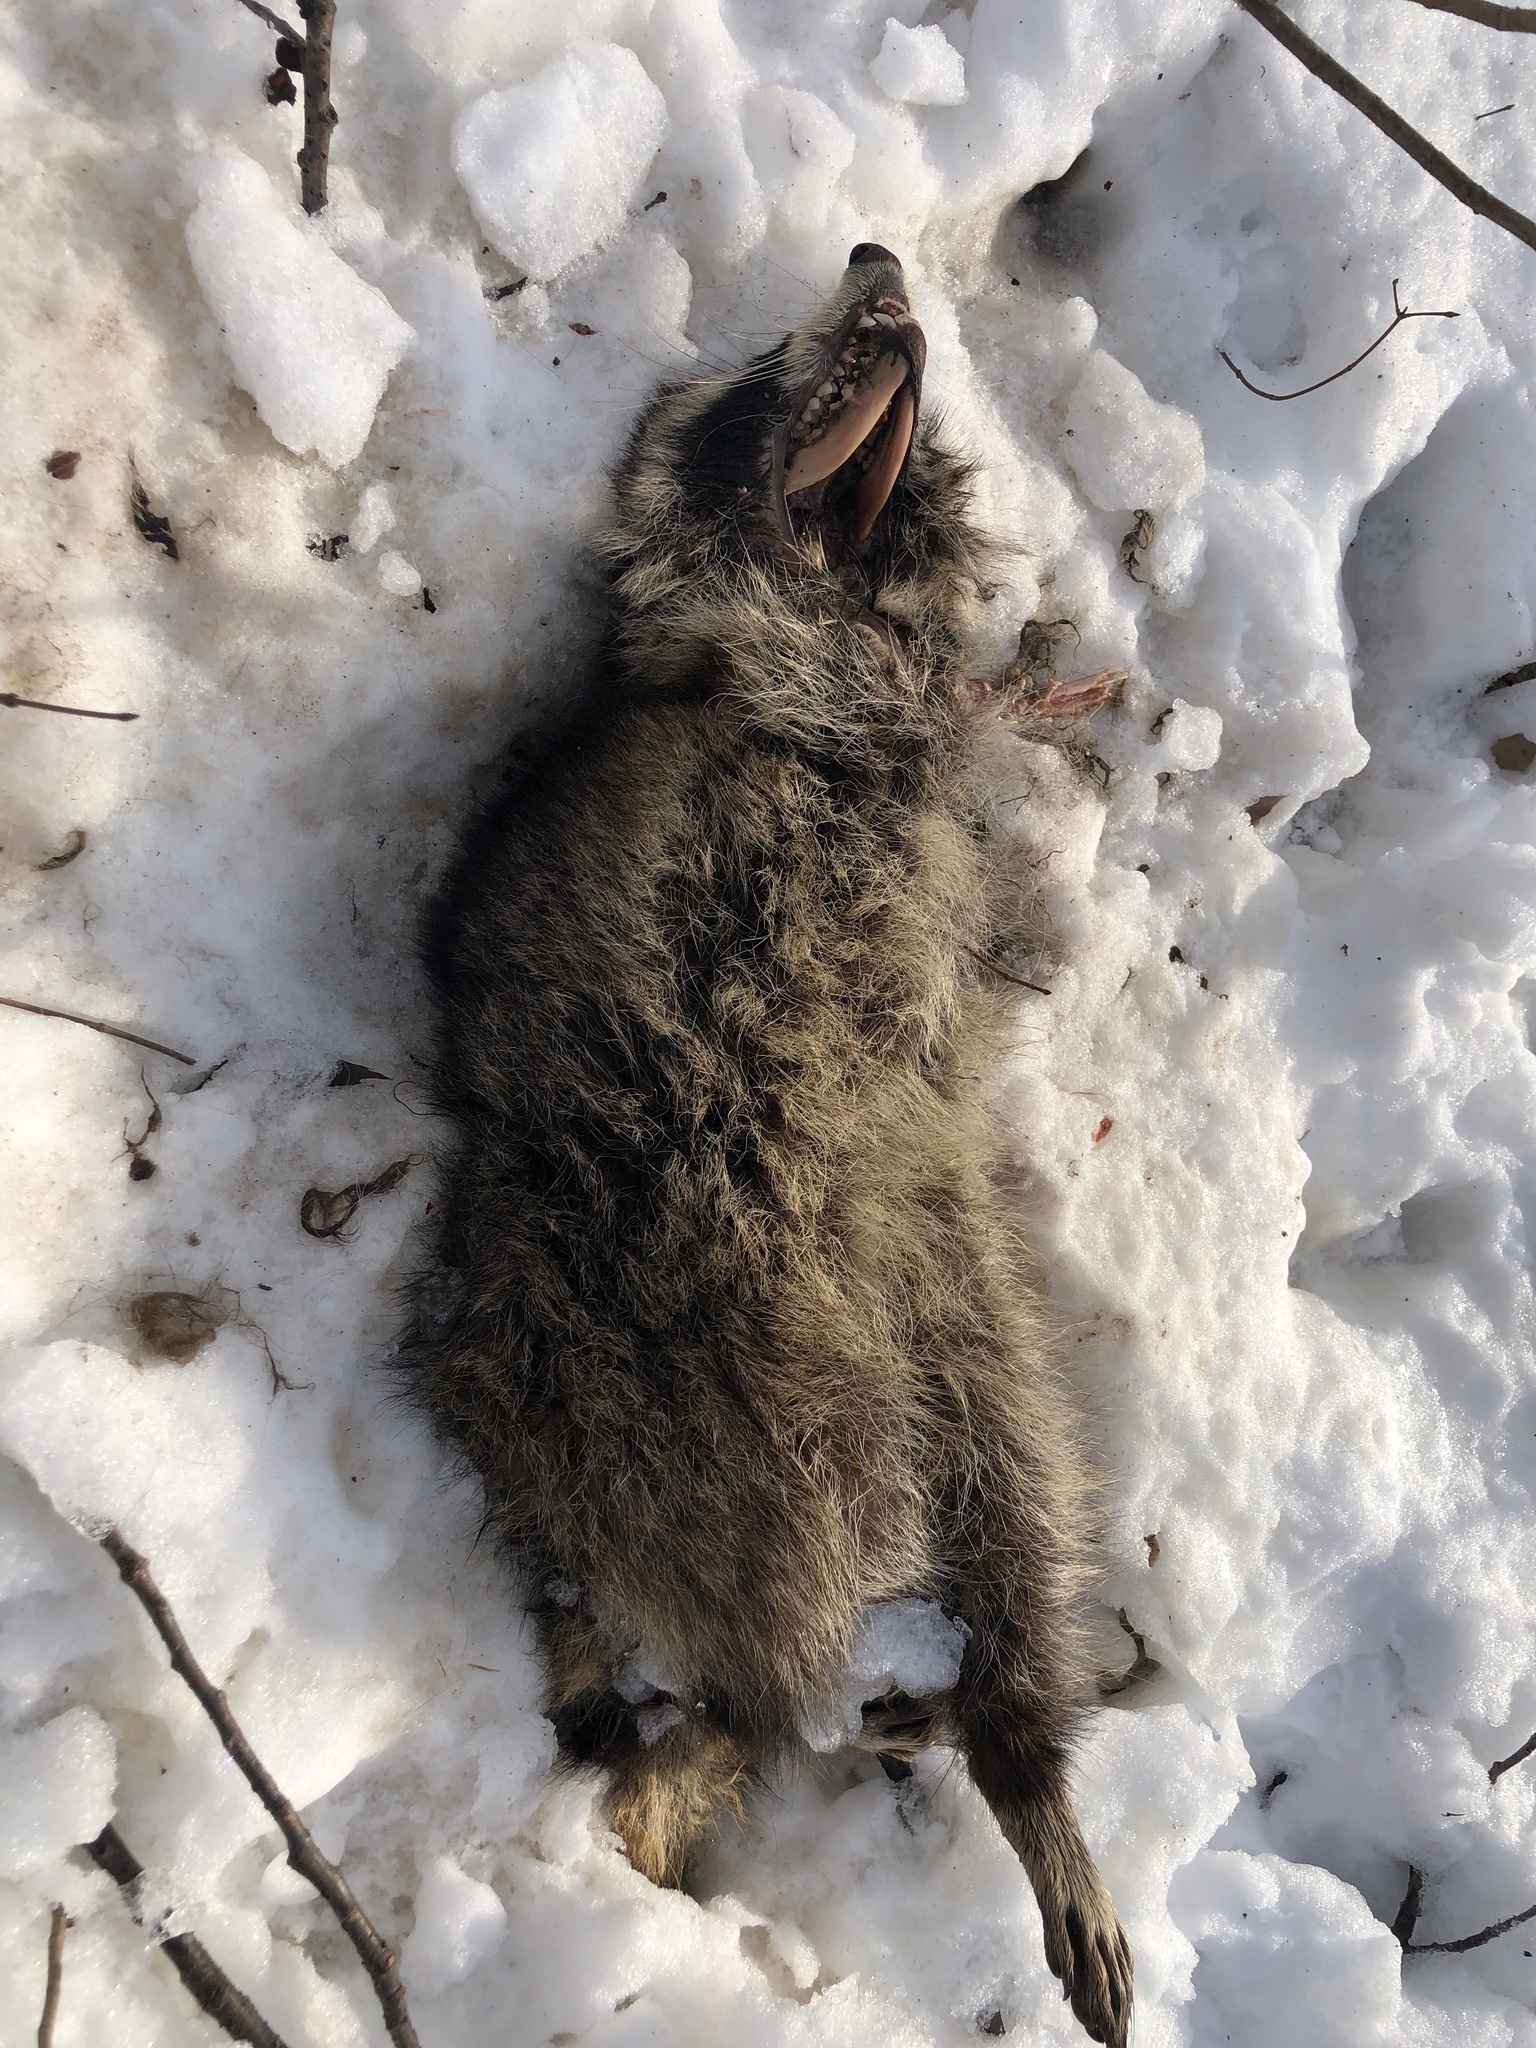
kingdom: Animalia
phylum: Chordata
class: Mammalia
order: Carnivora
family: Procyonidae
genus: Procyon
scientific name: Procyon lotor
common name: Raccoon
